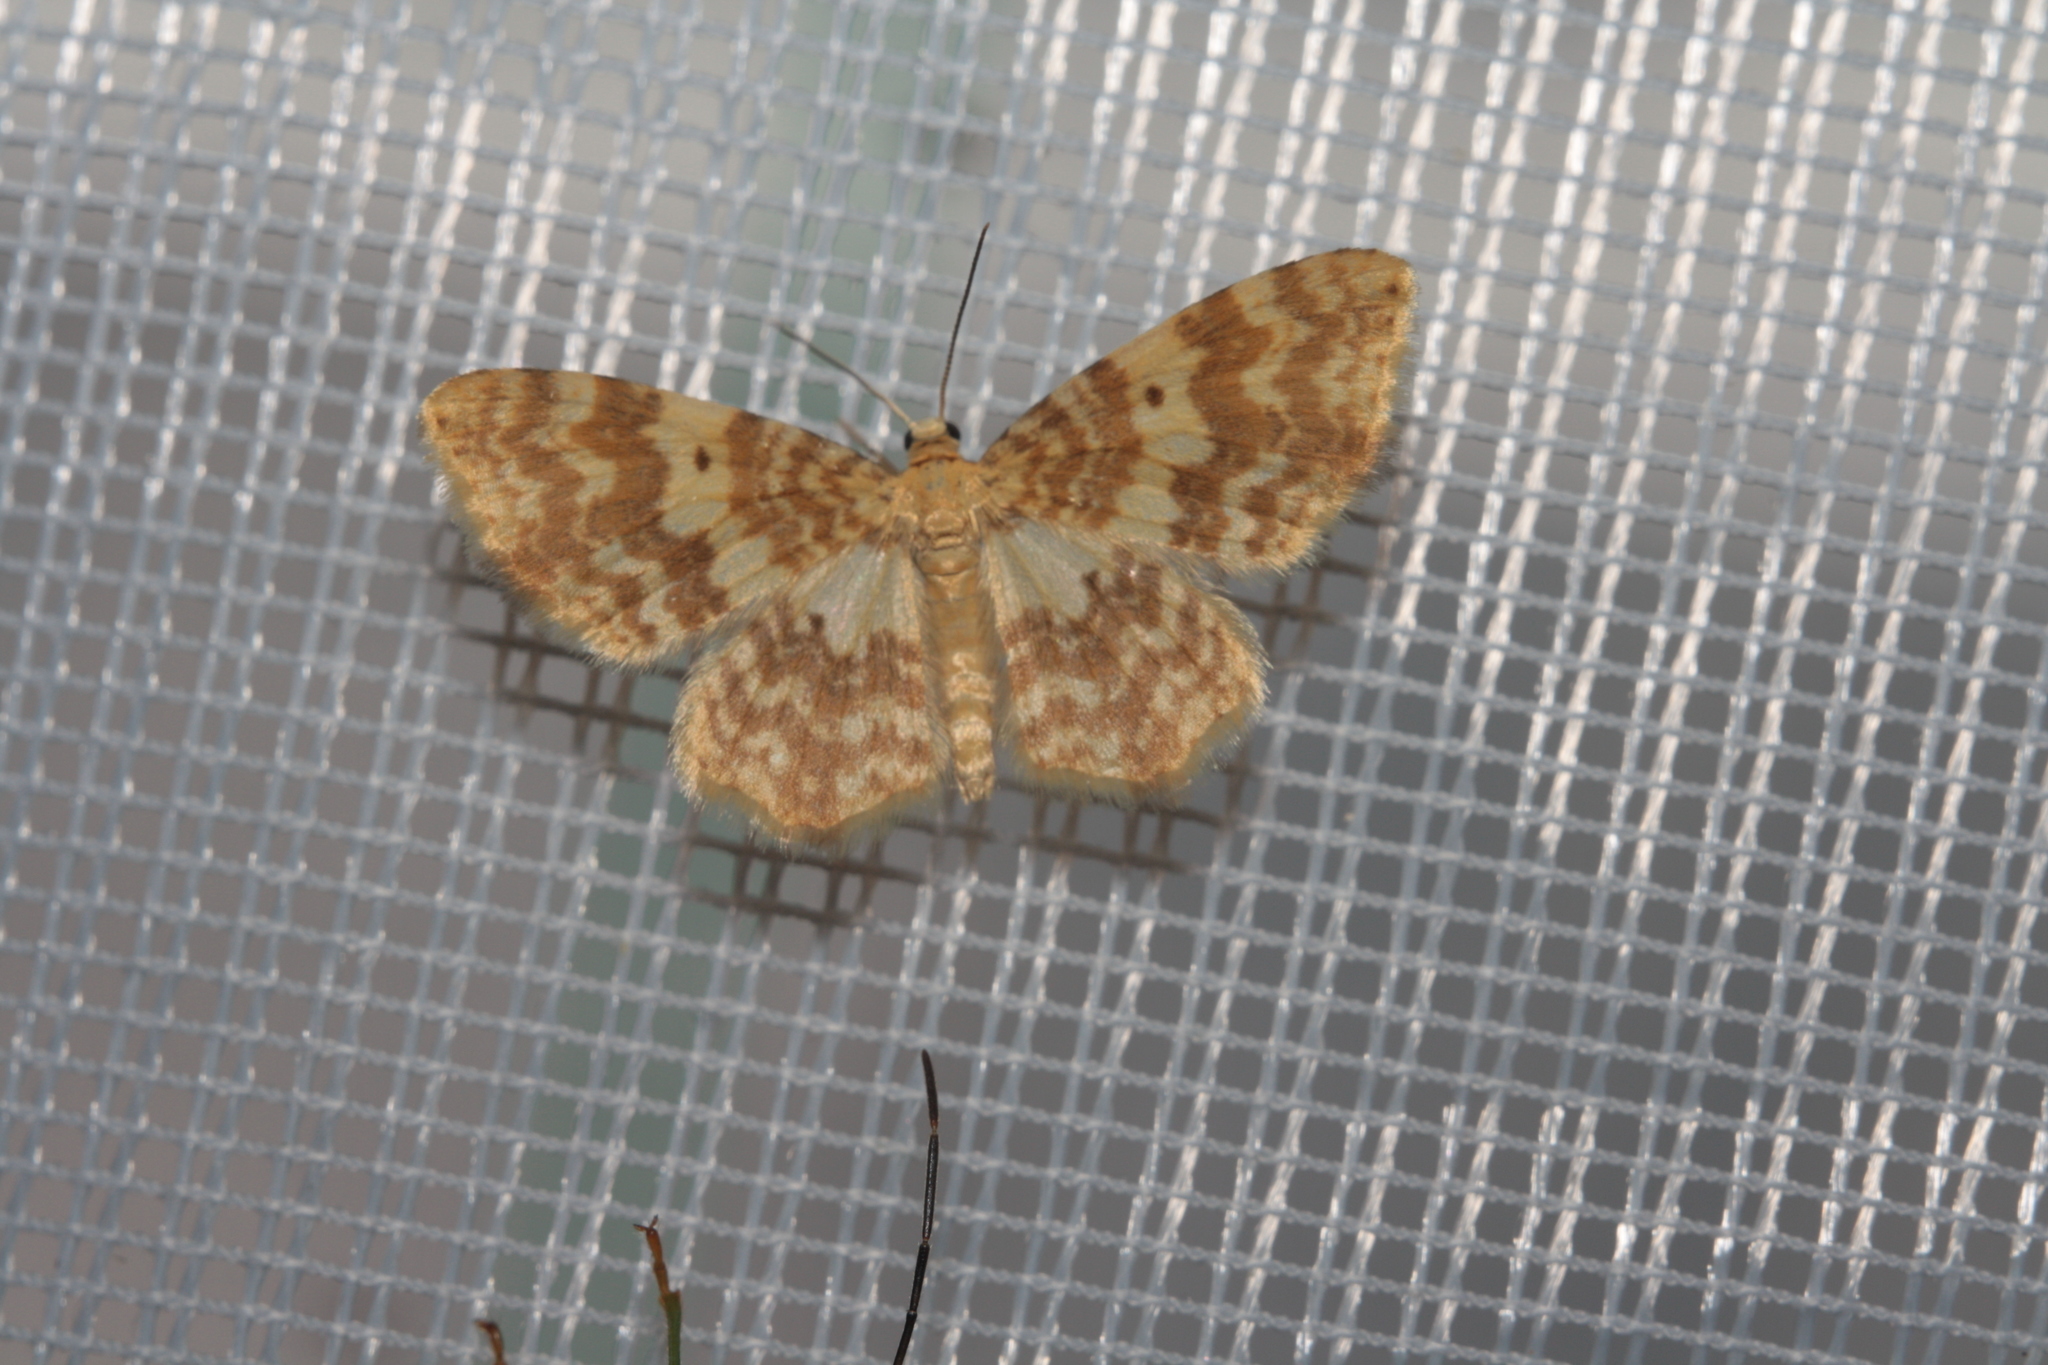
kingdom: Animalia
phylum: Arthropoda
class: Insecta
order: Lepidoptera
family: Geometridae
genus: Hydrelia
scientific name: Hydrelia flammeolaria
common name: Small yellow wave
